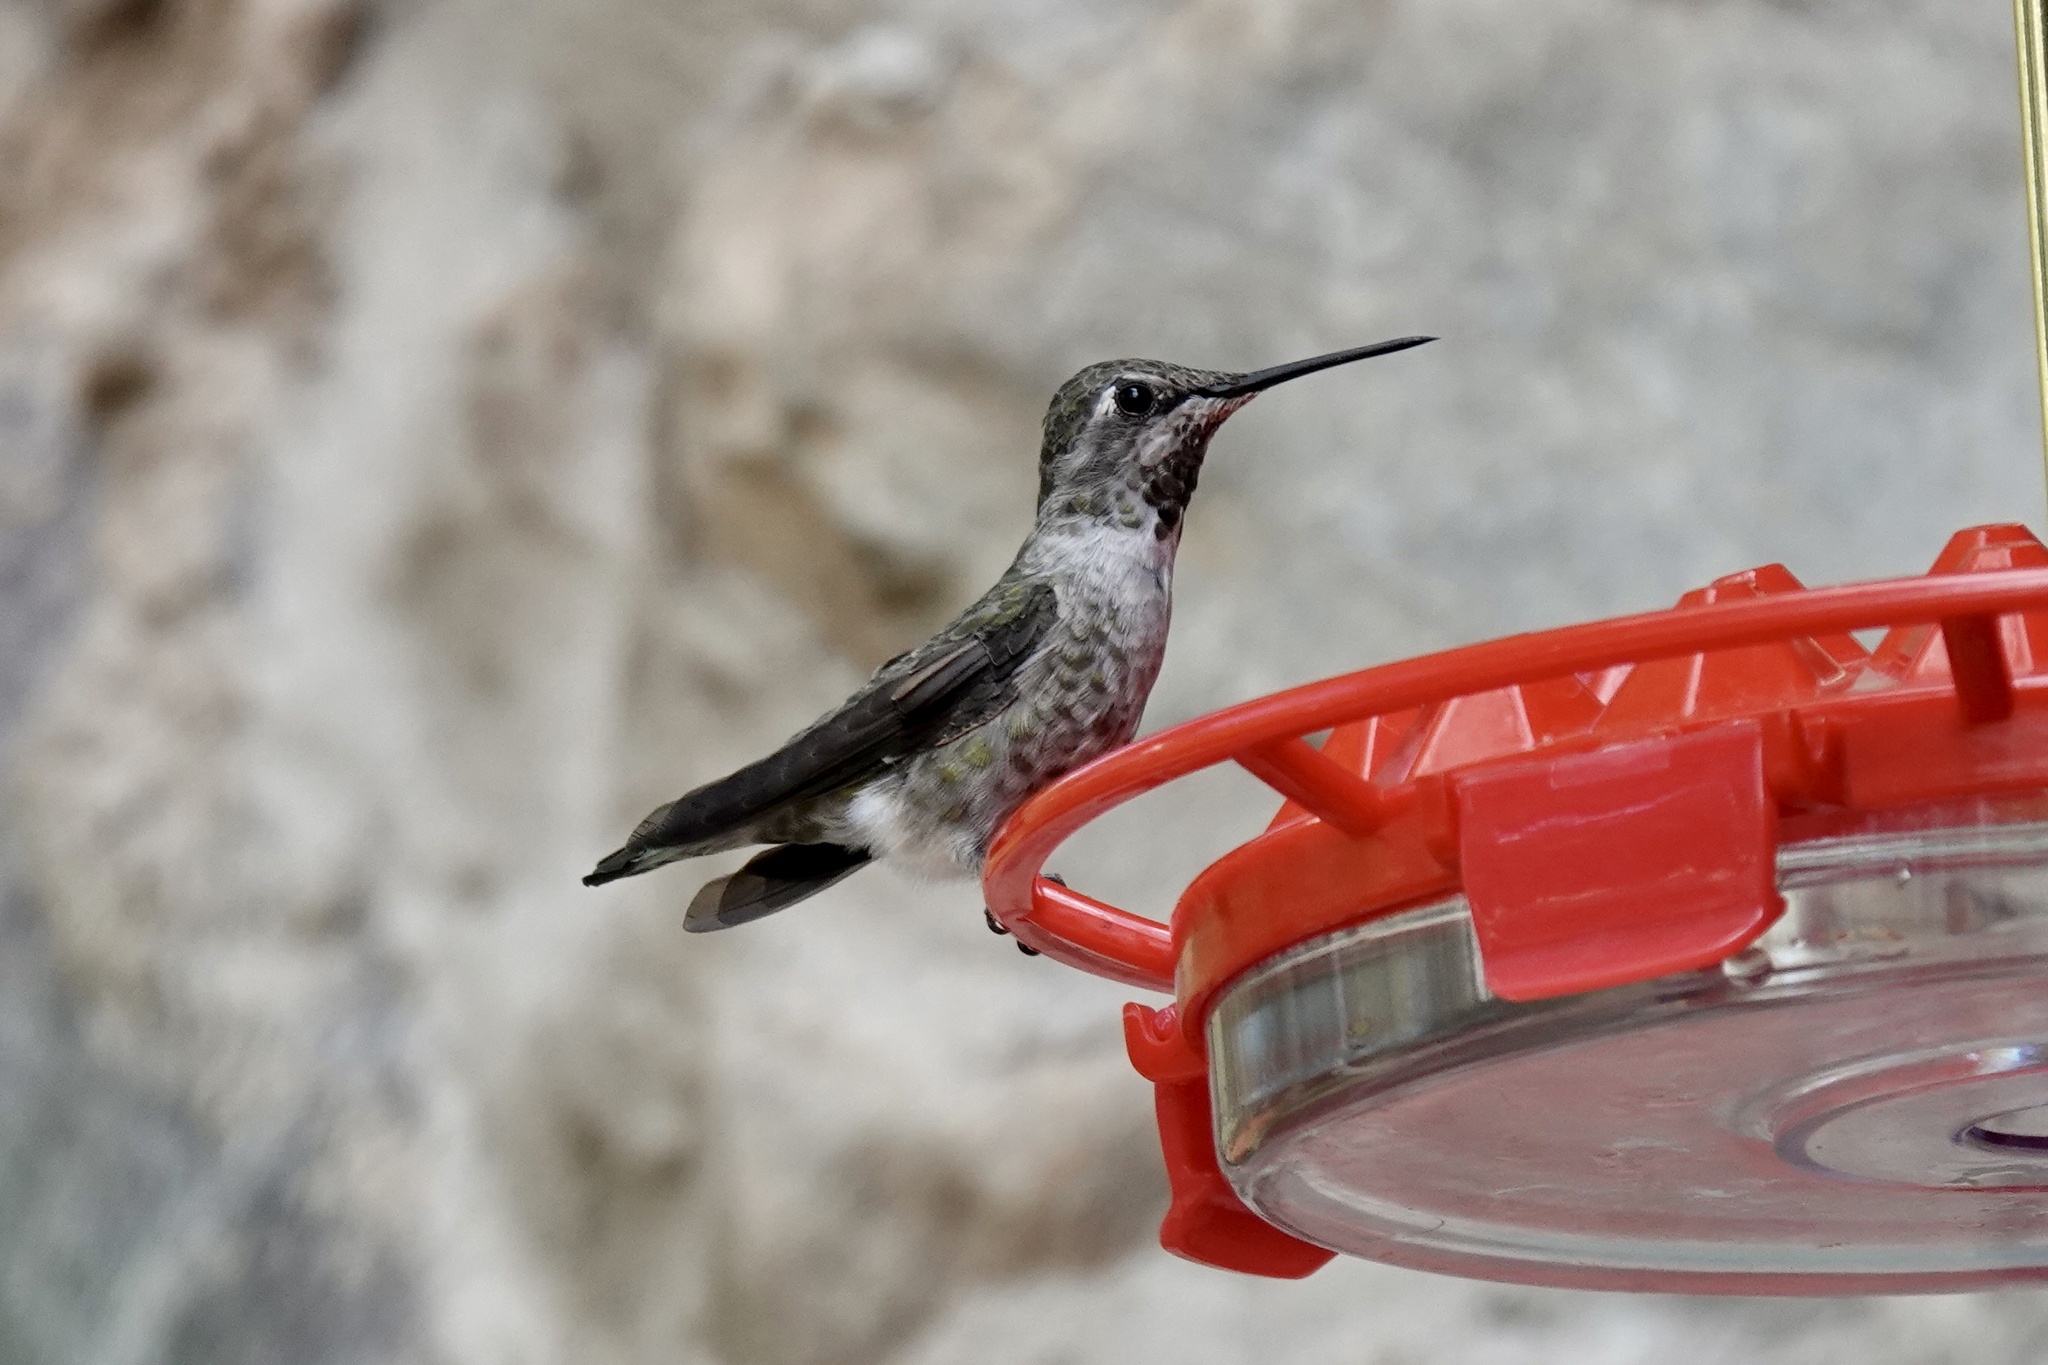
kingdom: Animalia
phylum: Chordata
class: Aves
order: Apodiformes
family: Trochilidae
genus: Calypte
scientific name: Calypte anna
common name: Anna's hummingbird
